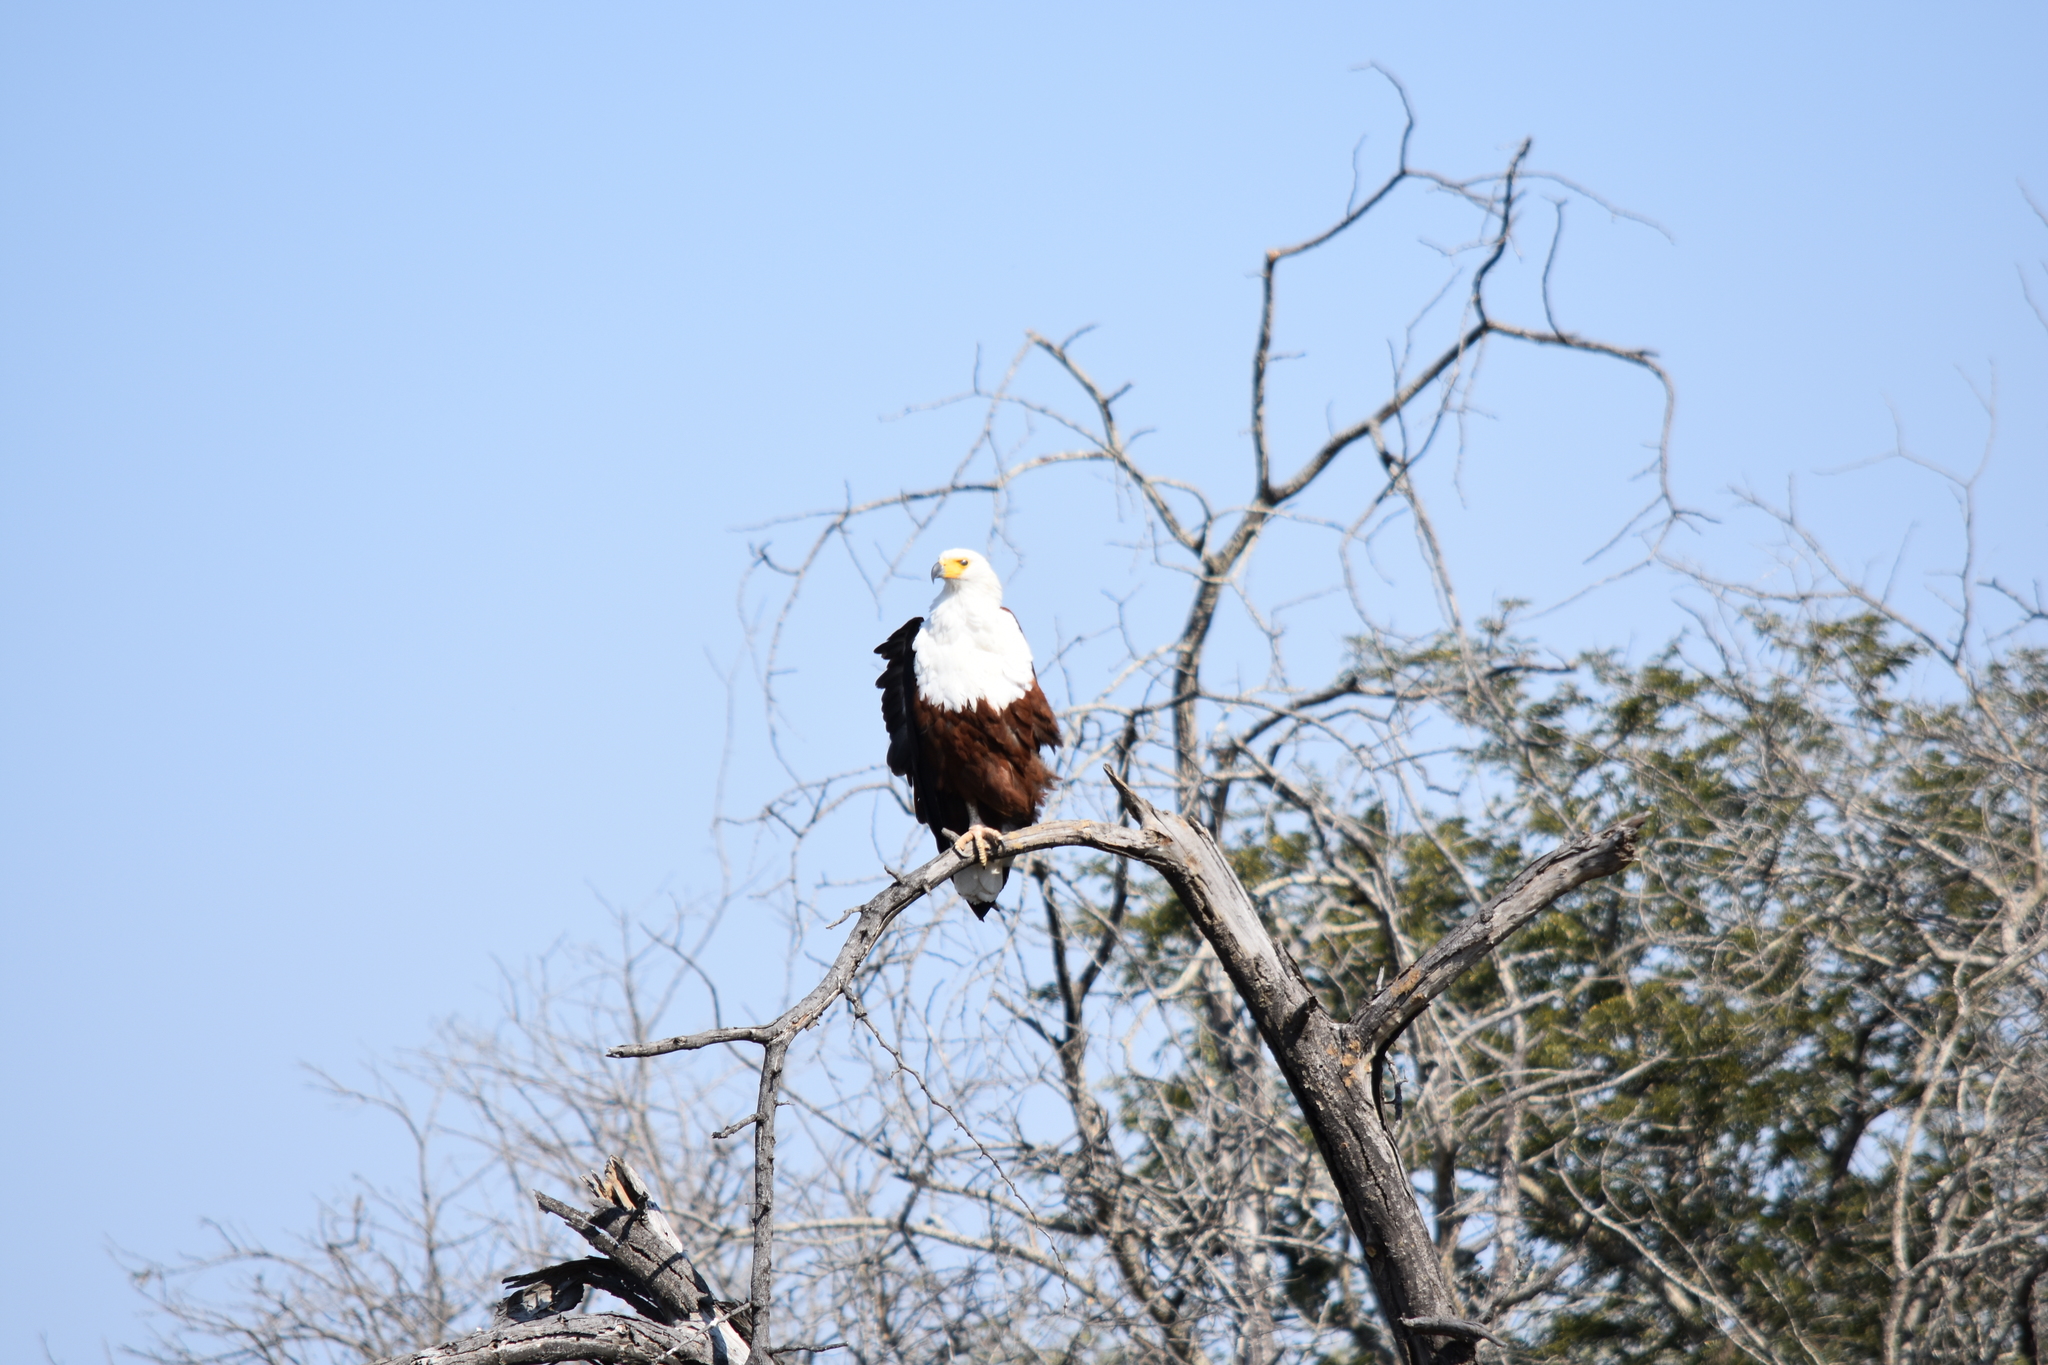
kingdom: Animalia
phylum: Chordata
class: Aves
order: Accipitriformes
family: Accipitridae
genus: Haliaeetus
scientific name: Haliaeetus vocifer
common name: African fish eagle
